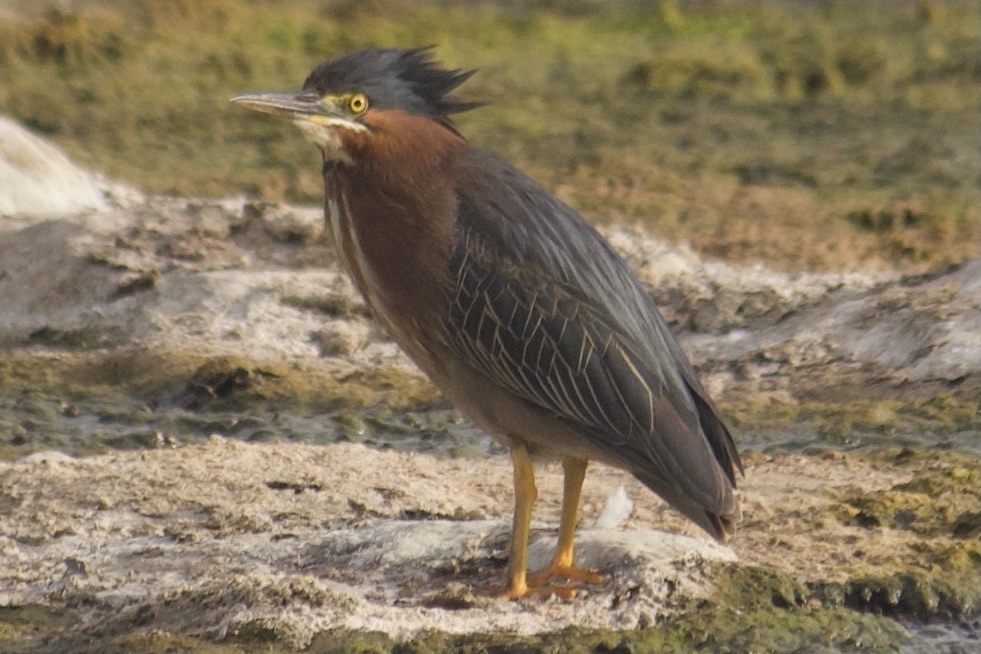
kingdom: Animalia
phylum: Chordata
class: Aves
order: Pelecaniformes
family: Ardeidae
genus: Butorides
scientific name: Butorides virescens
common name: Green heron
